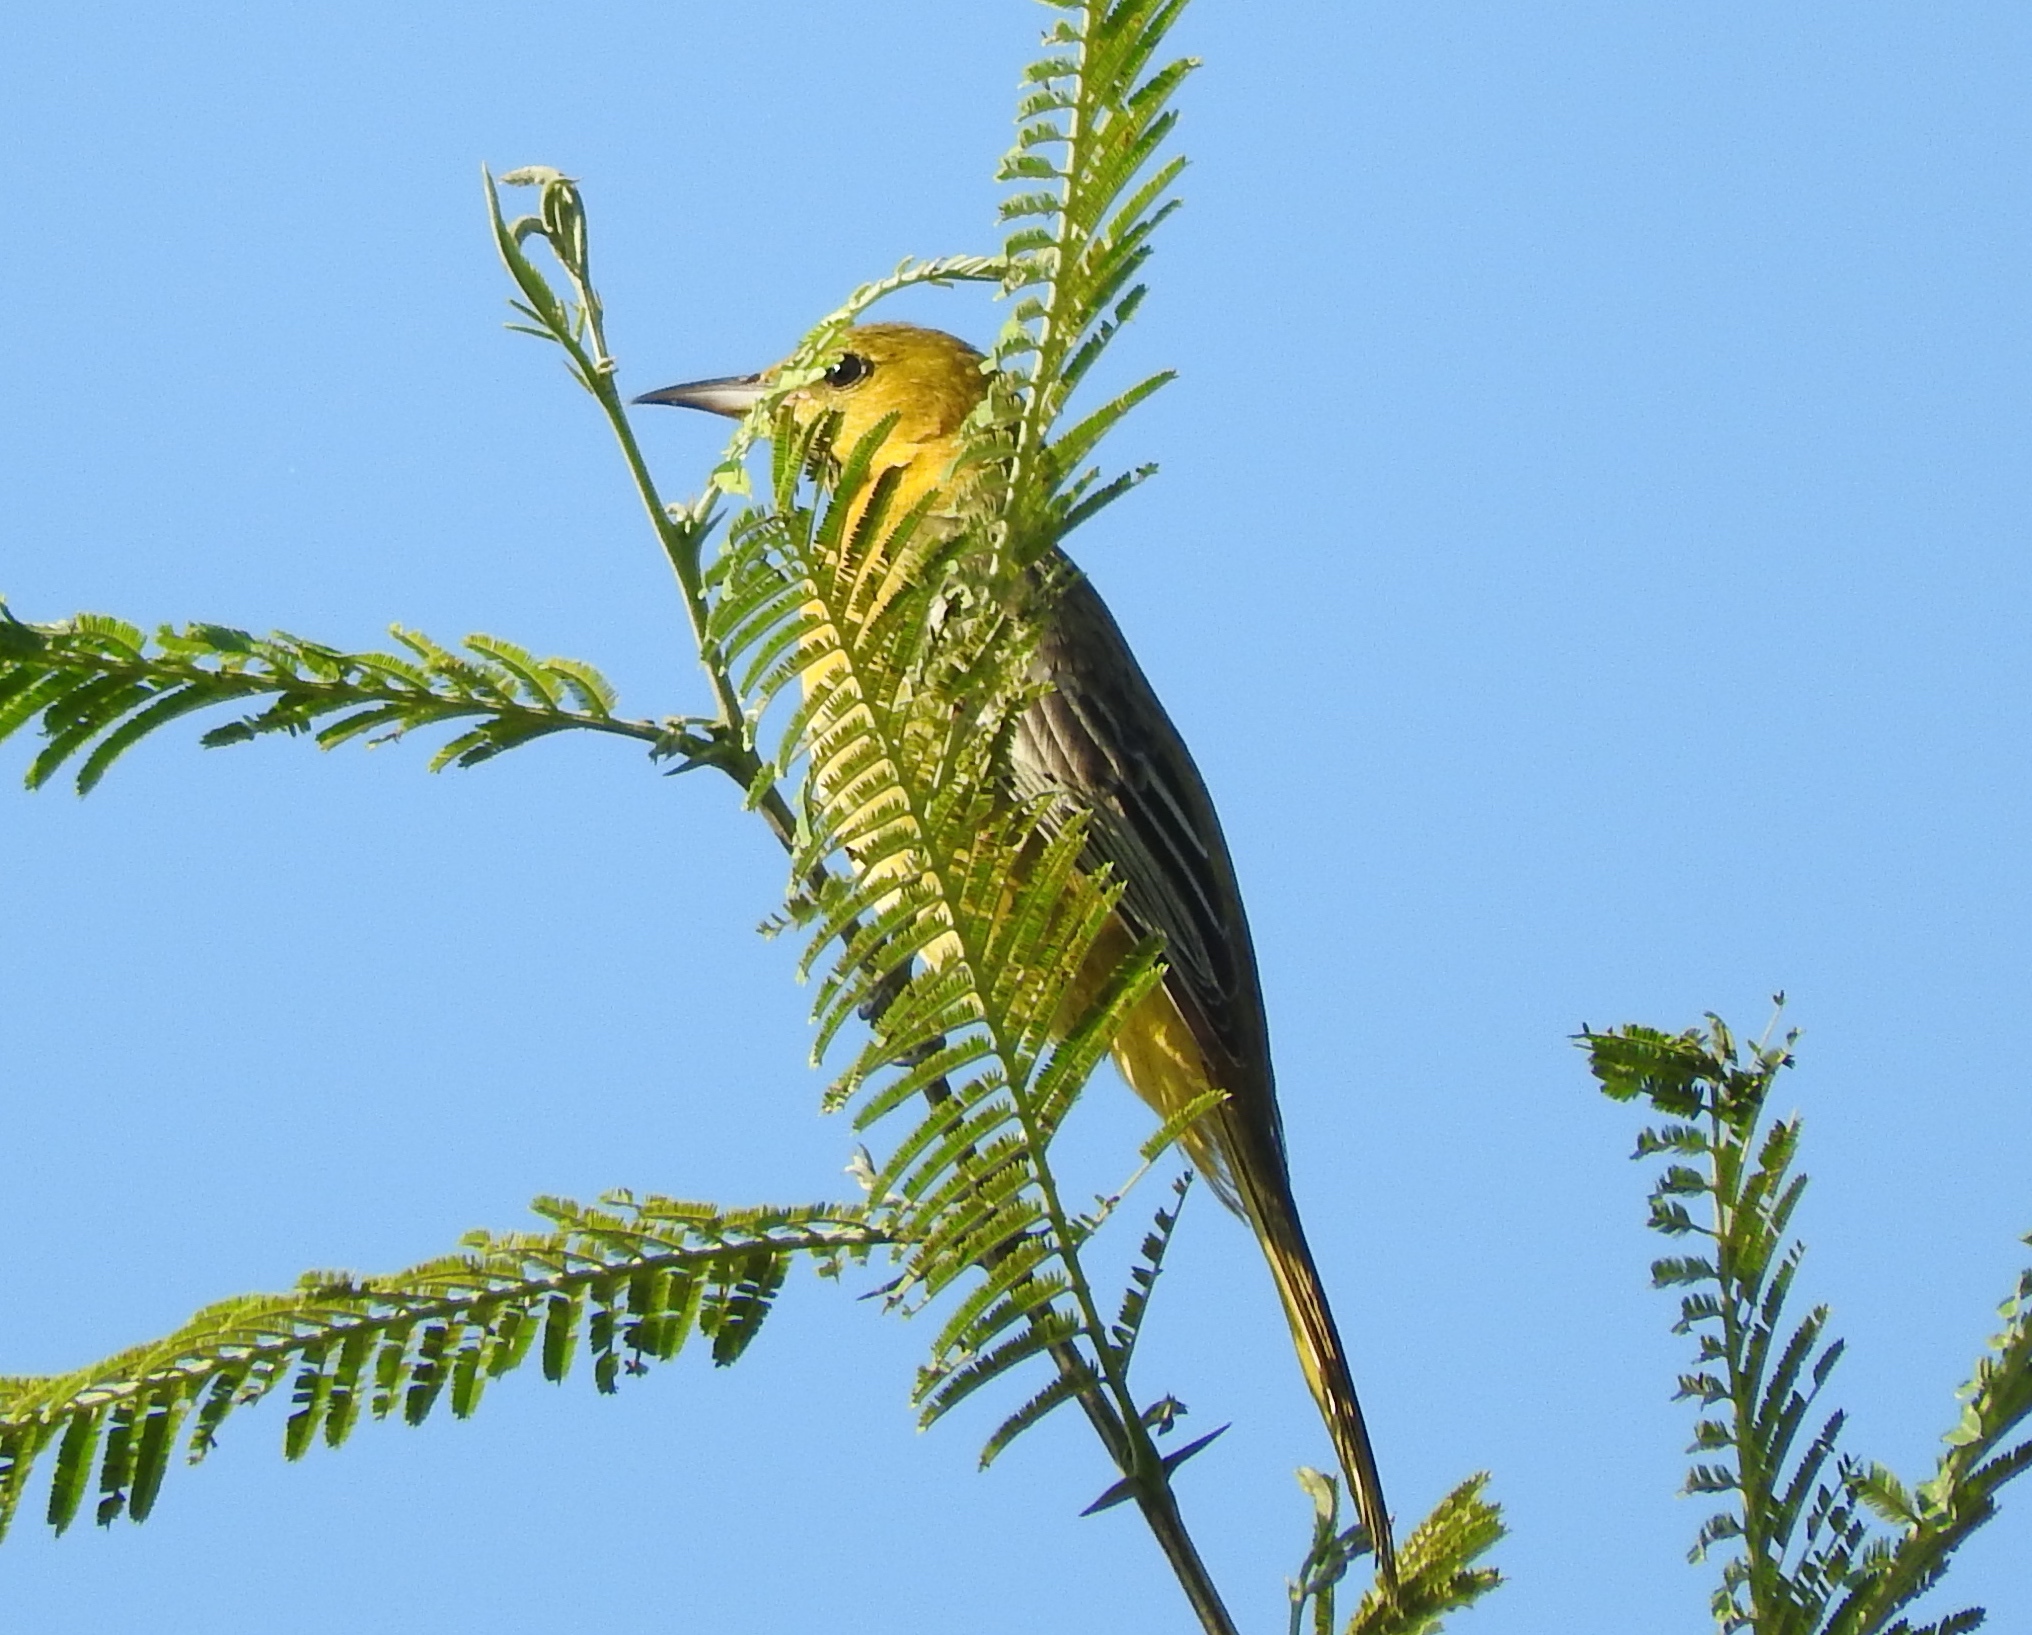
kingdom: Animalia
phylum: Chordata
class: Aves
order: Passeriformes
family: Icteridae
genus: Icterus
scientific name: Icterus
